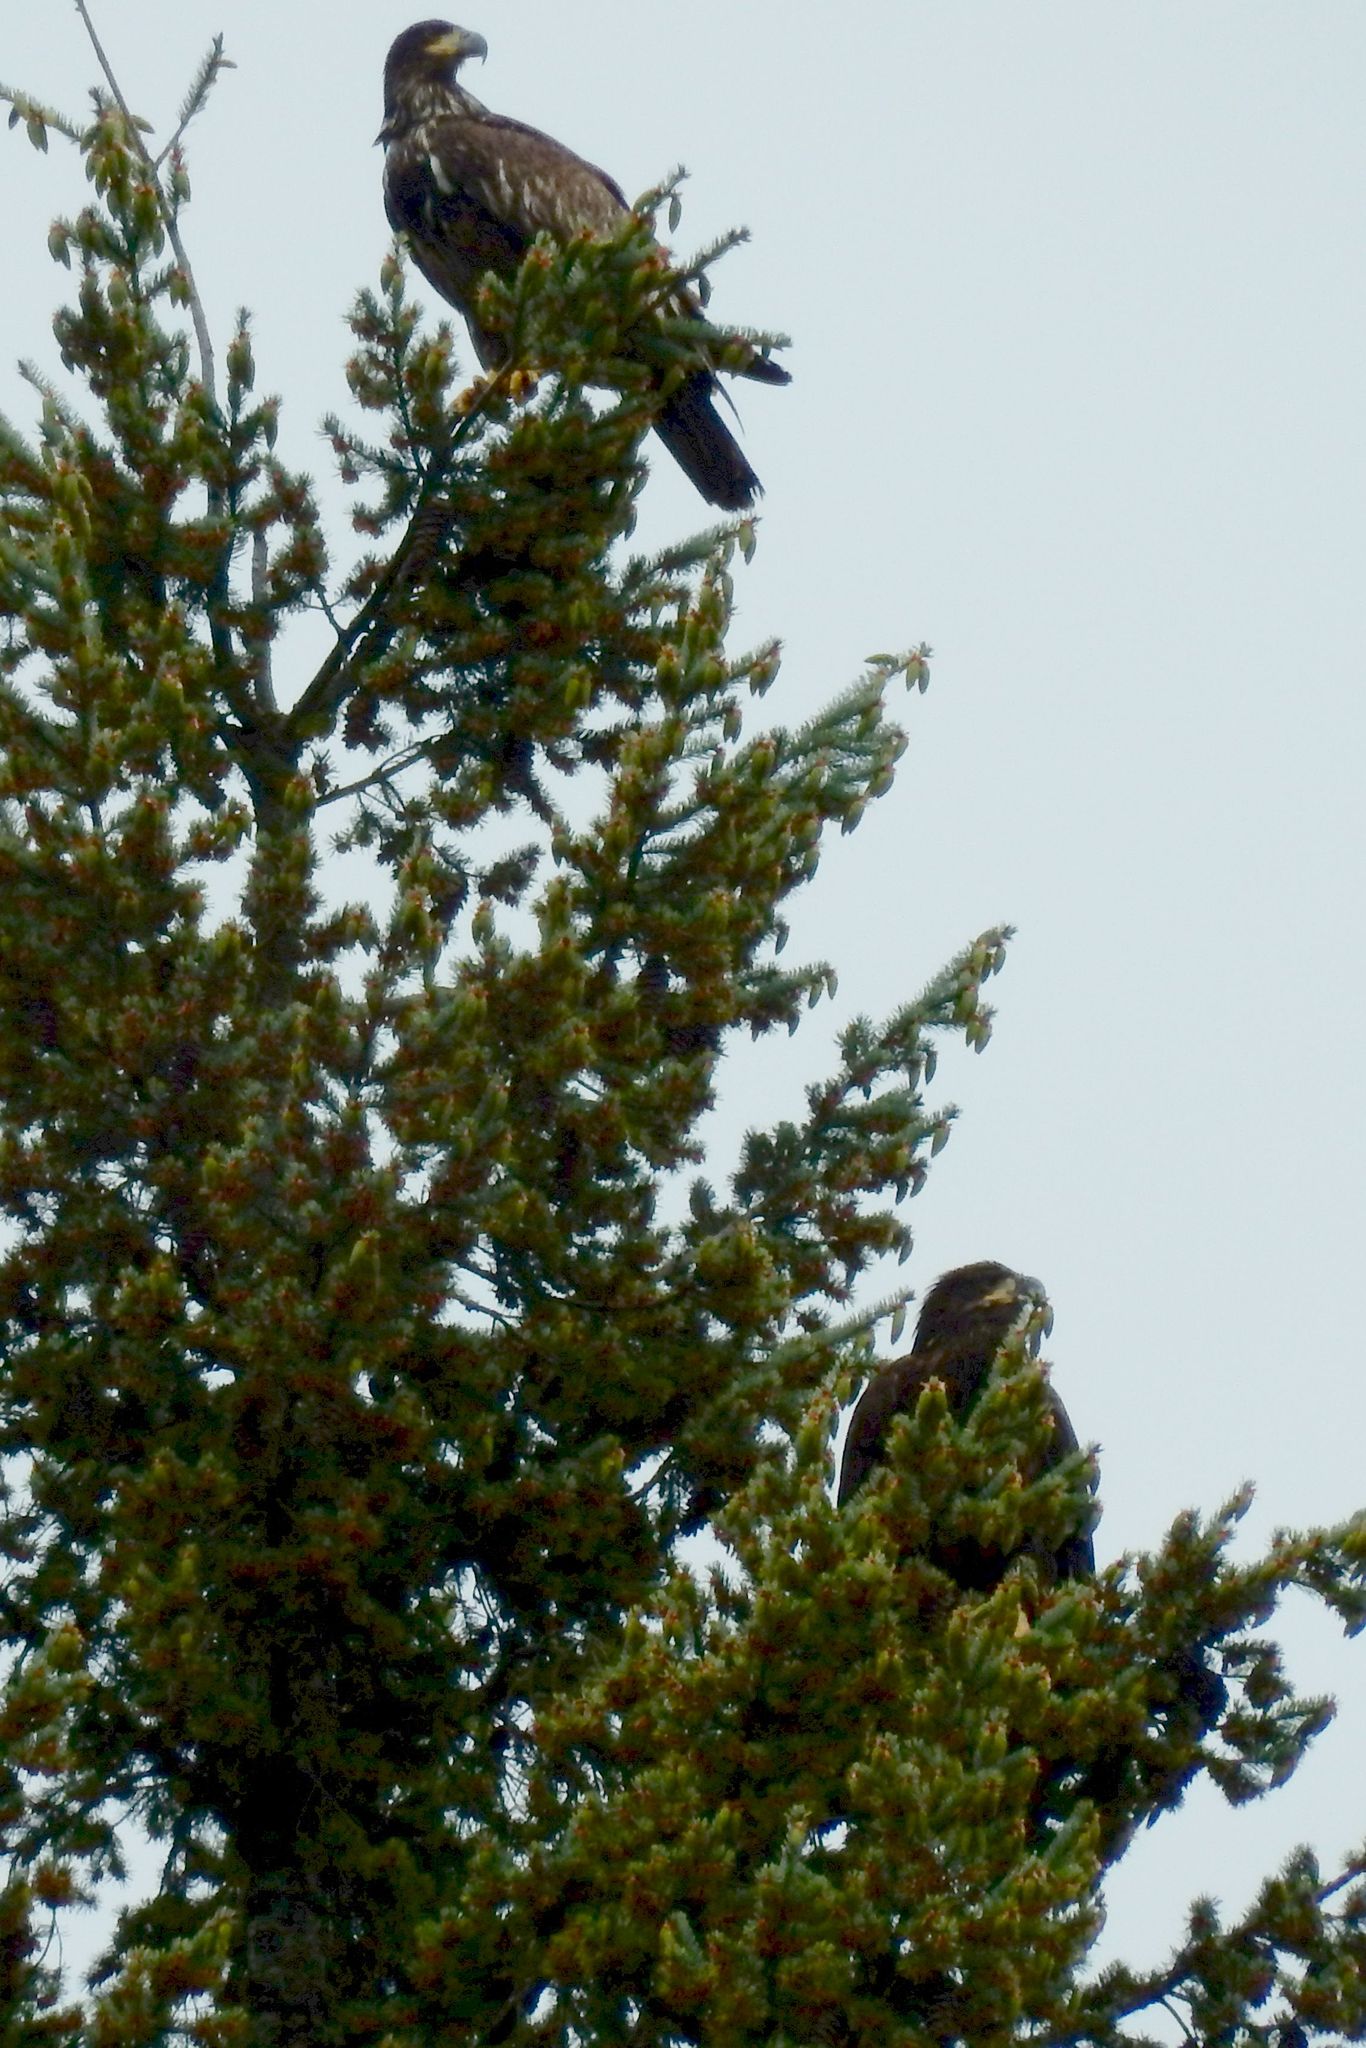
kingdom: Animalia
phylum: Chordata
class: Aves
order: Accipitriformes
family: Accipitridae
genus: Haliaeetus
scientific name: Haliaeetus leucocephalus
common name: Bald eagle
